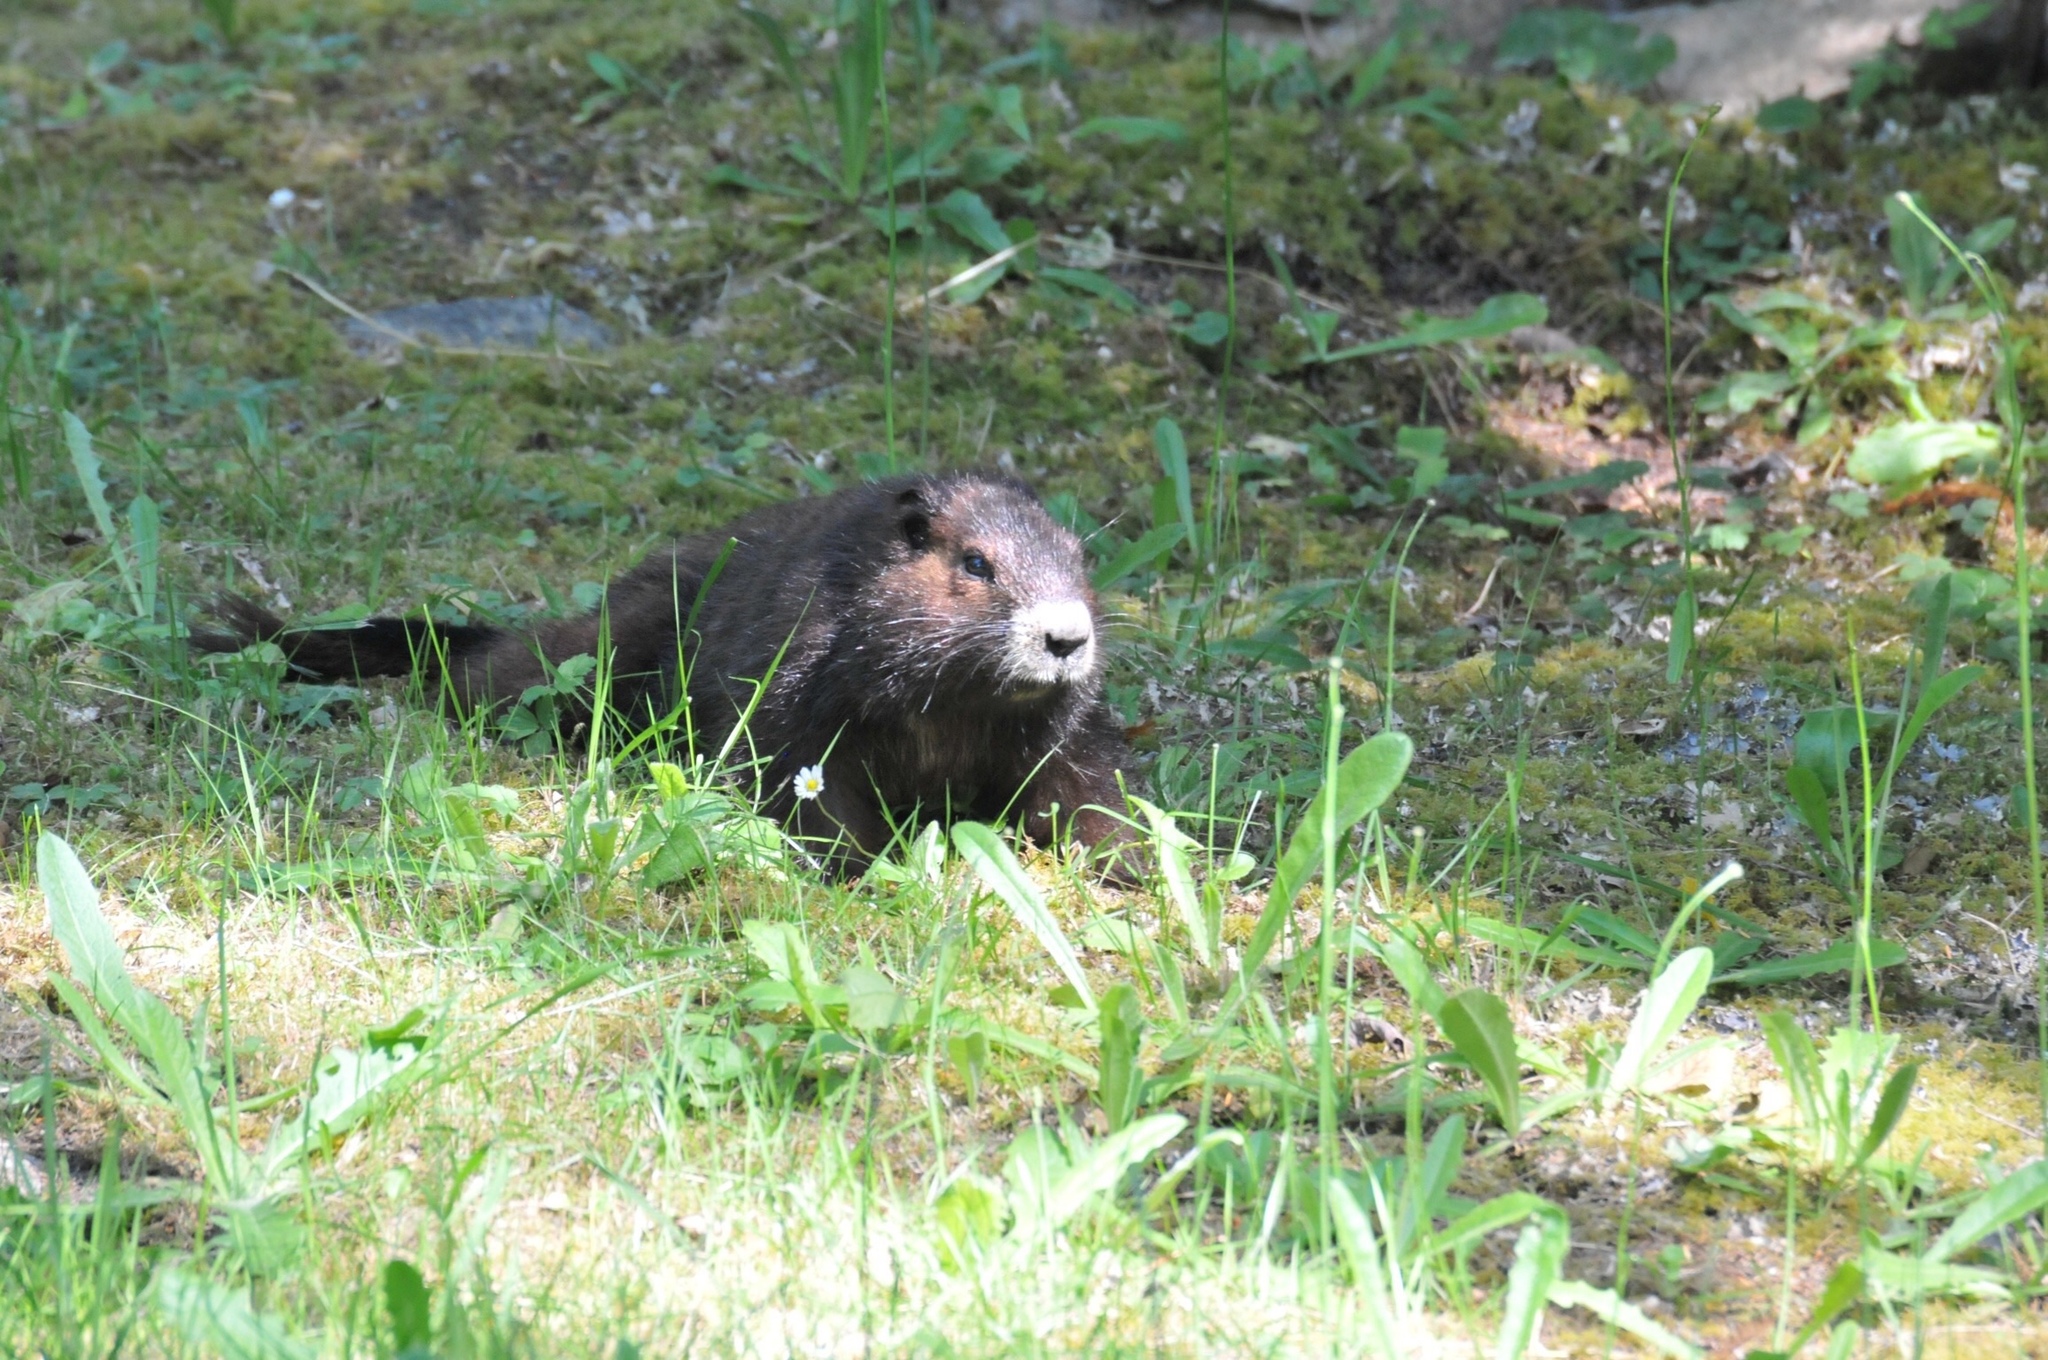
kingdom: Animalia
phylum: Chordata
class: Mammalia
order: Rodentia
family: Sciuridae
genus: Marmota
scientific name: Marmota vancouverensis
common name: Vancouver island marmot
